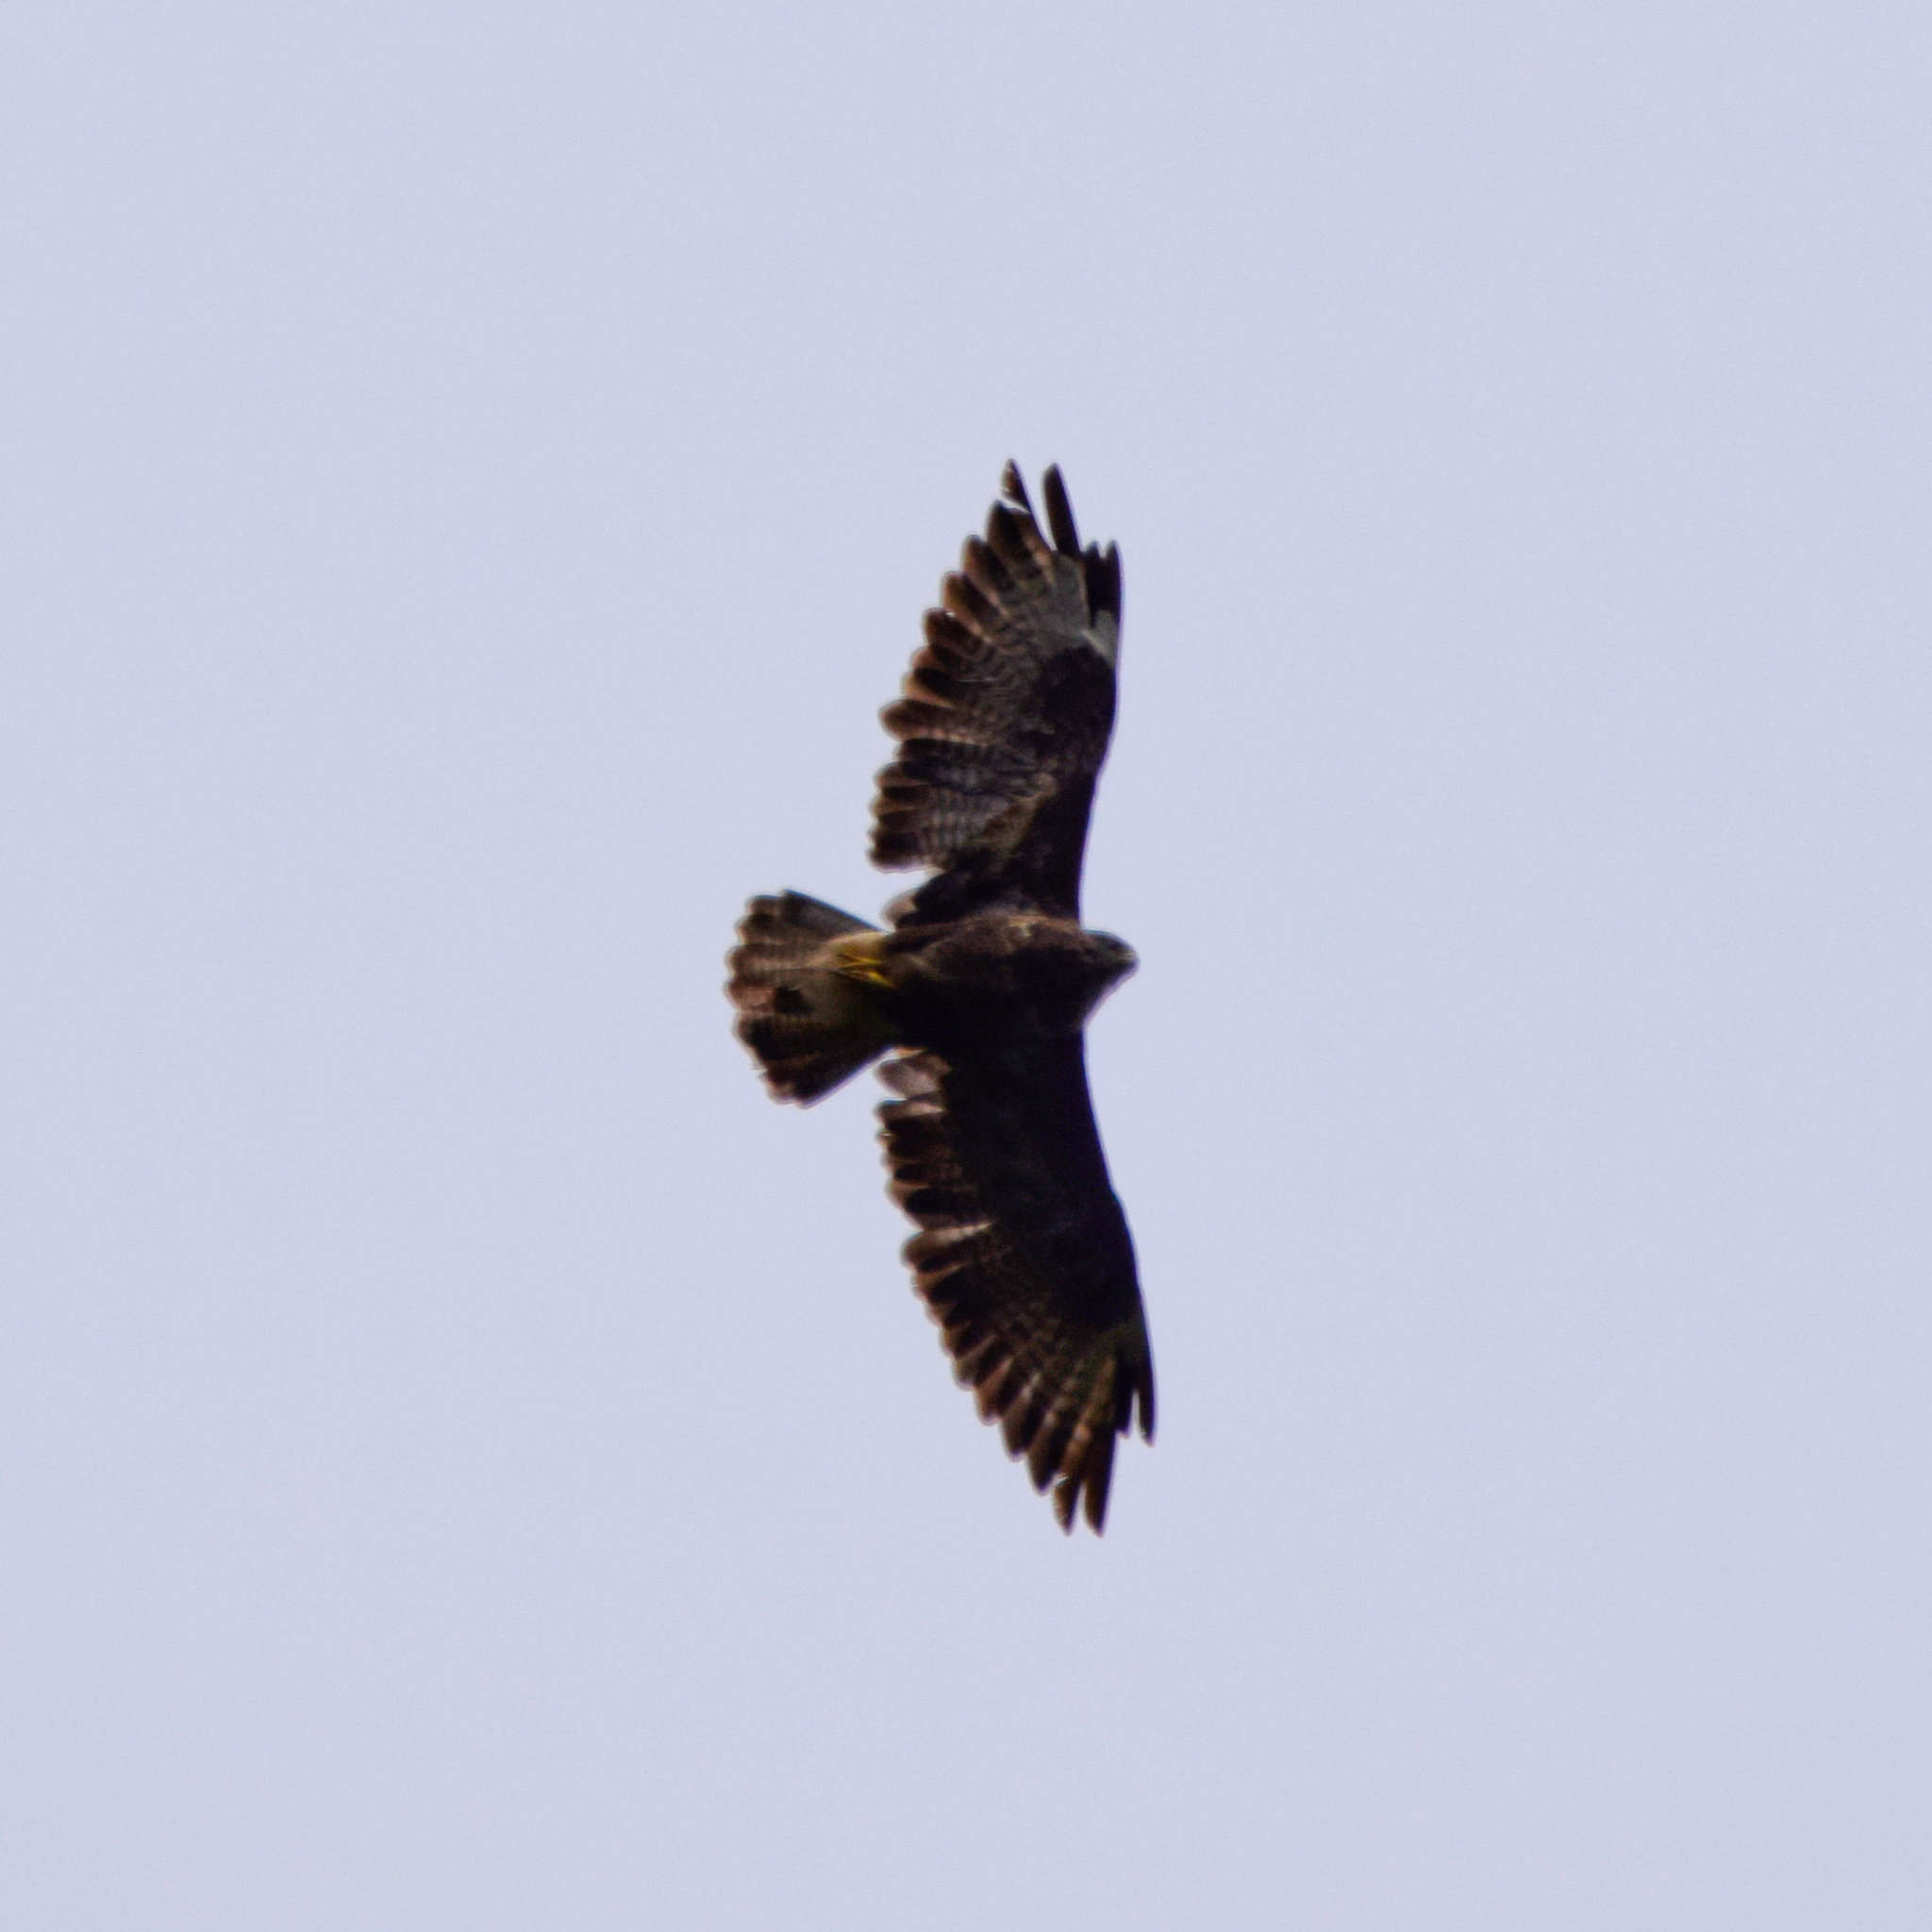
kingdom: Animalia
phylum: Chordata
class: Aves
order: Accipitriformes
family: Accipitridae
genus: Buteo
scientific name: Buteo buteo
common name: Common buzzard
